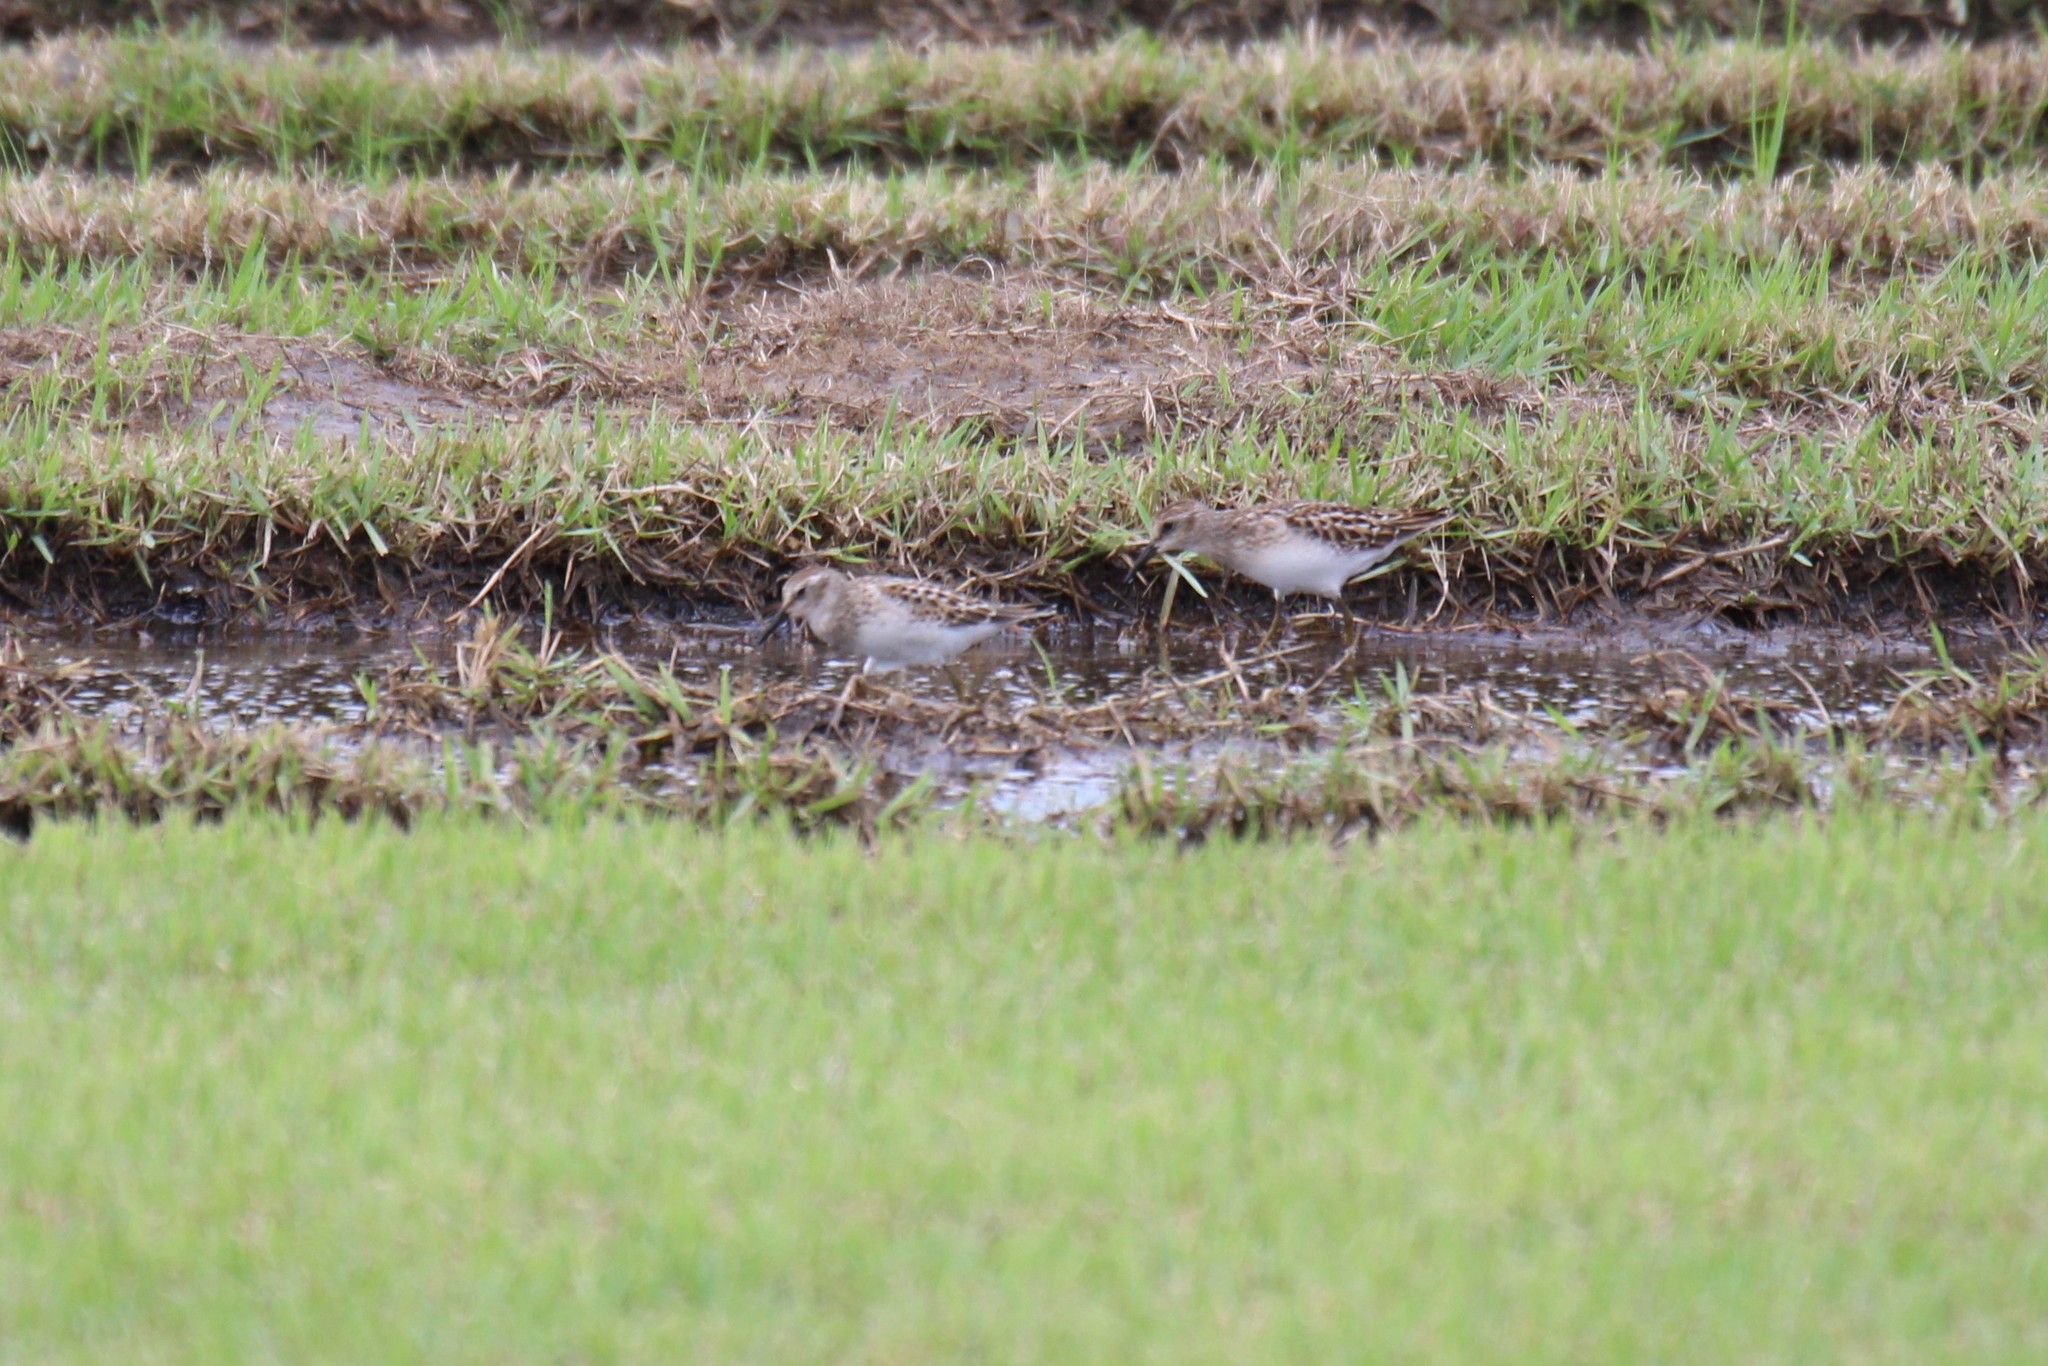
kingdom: Animalia
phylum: Chordata
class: Aves
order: Charadriiformes
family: Scolopacidae
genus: Calidris
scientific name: Calidris minutilla
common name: Least sandpiper
